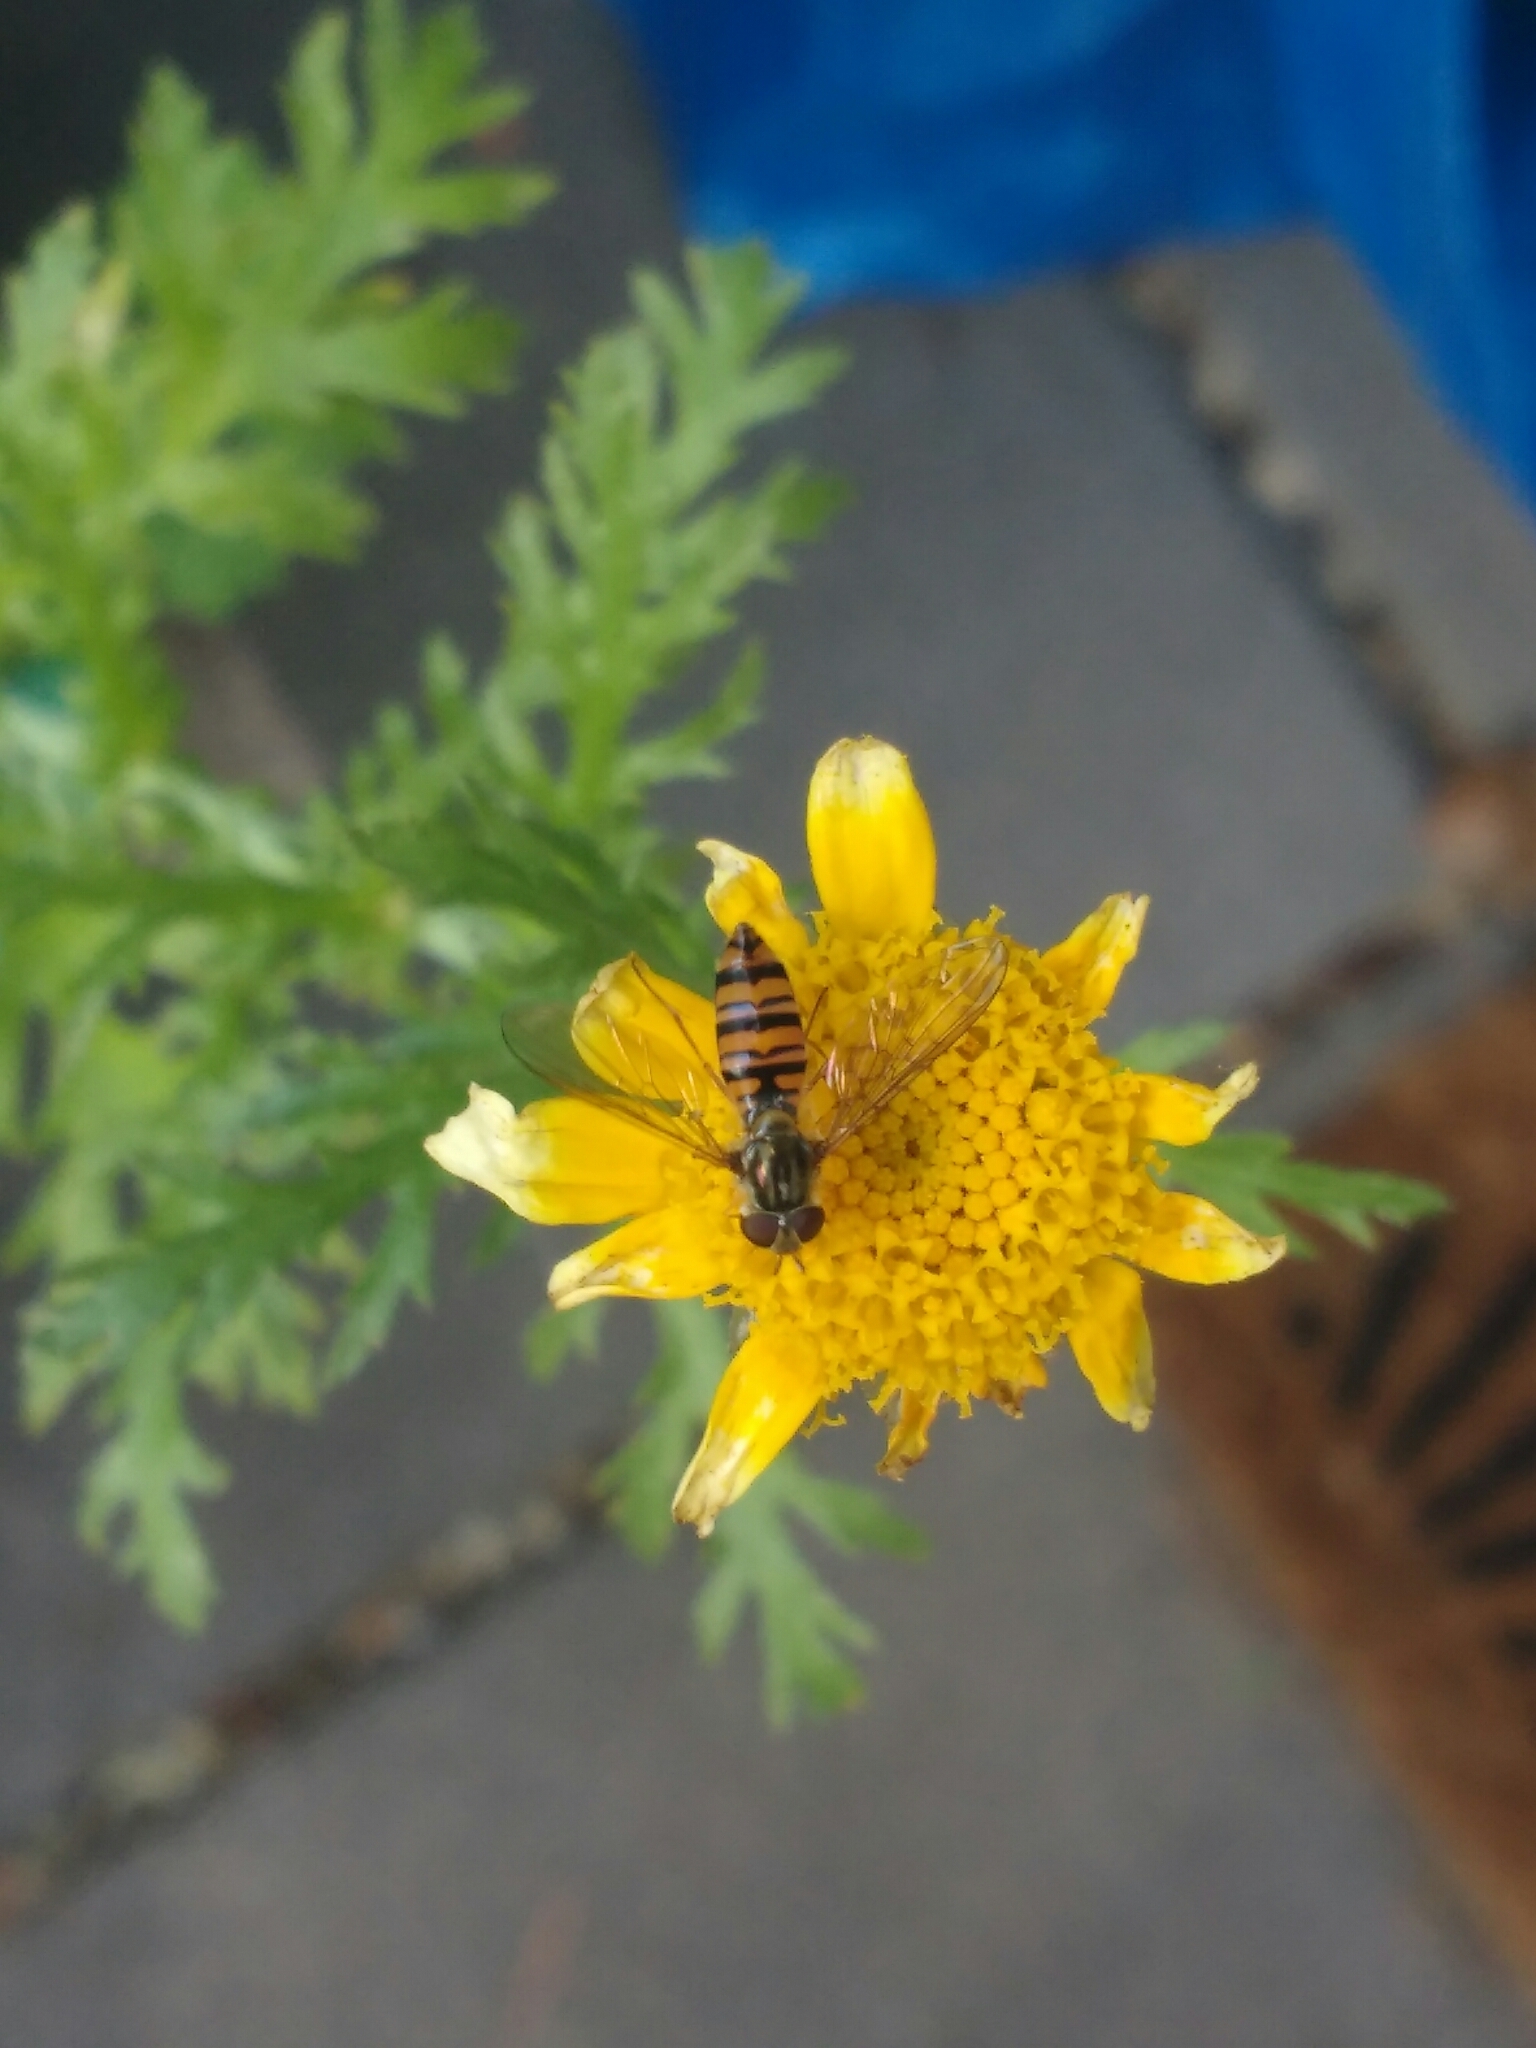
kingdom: Animalia
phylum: Arthropoda
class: Insecta
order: Diptera
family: Syrphidae
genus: Episyrphus
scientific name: Episyrphus balteatus
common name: Marmalade hoverfly
